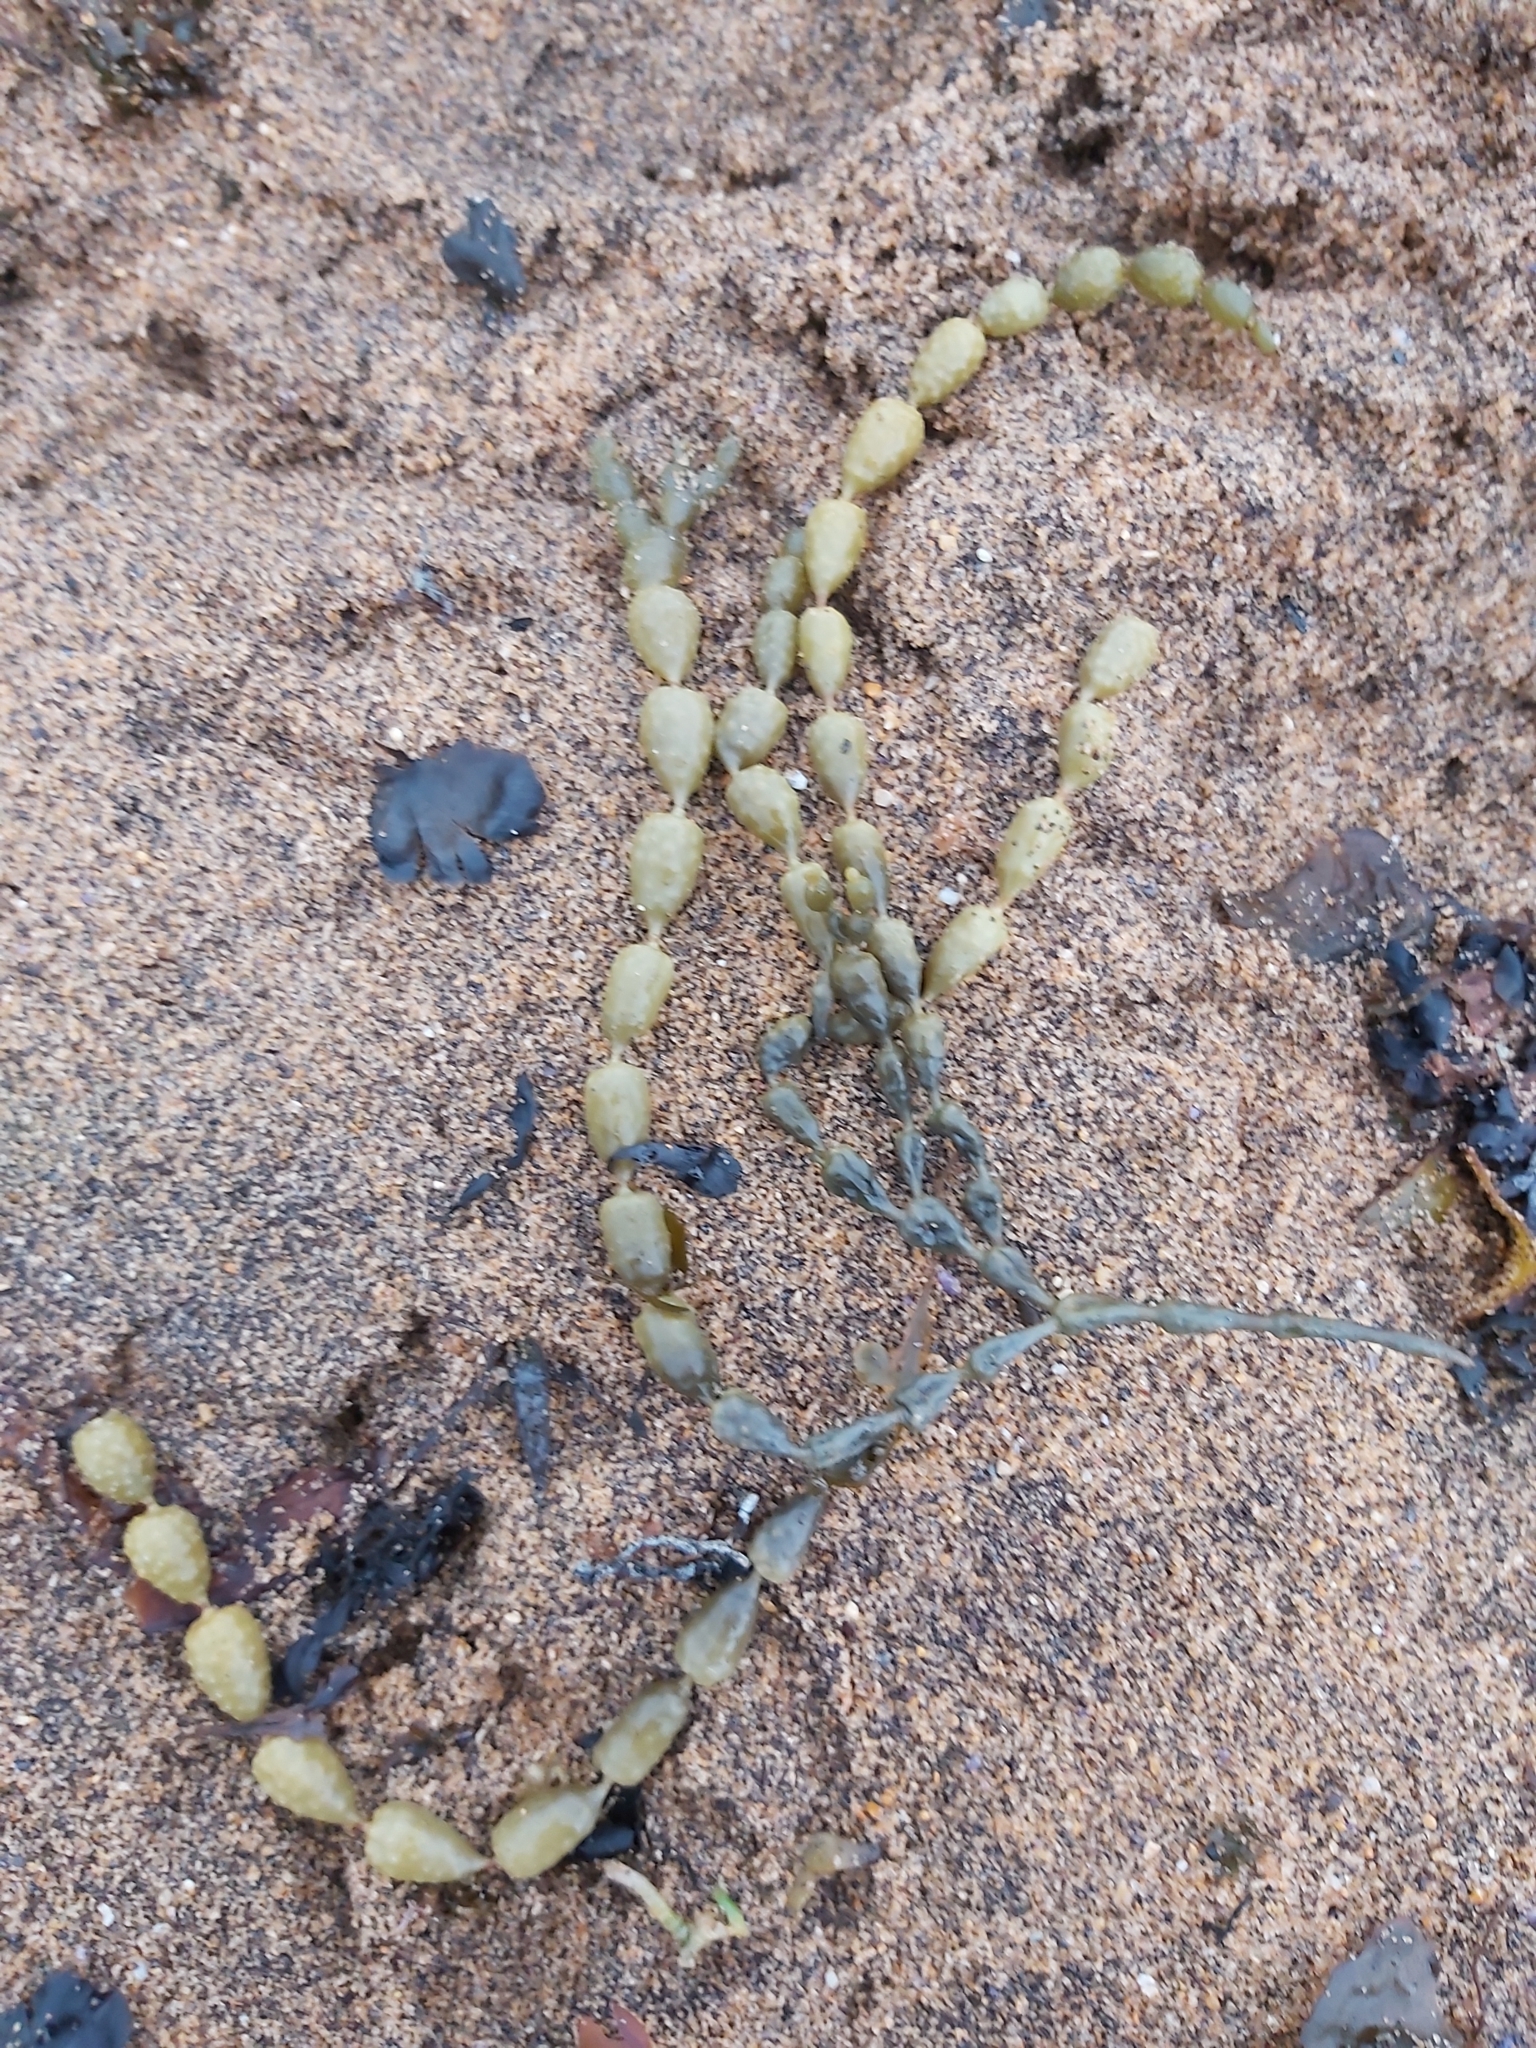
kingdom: Chromista
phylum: Ochrophyta
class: Phaeophyceae
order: Fucales
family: Hormosiraceae
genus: Hormosira
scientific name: Hormosira banksii
